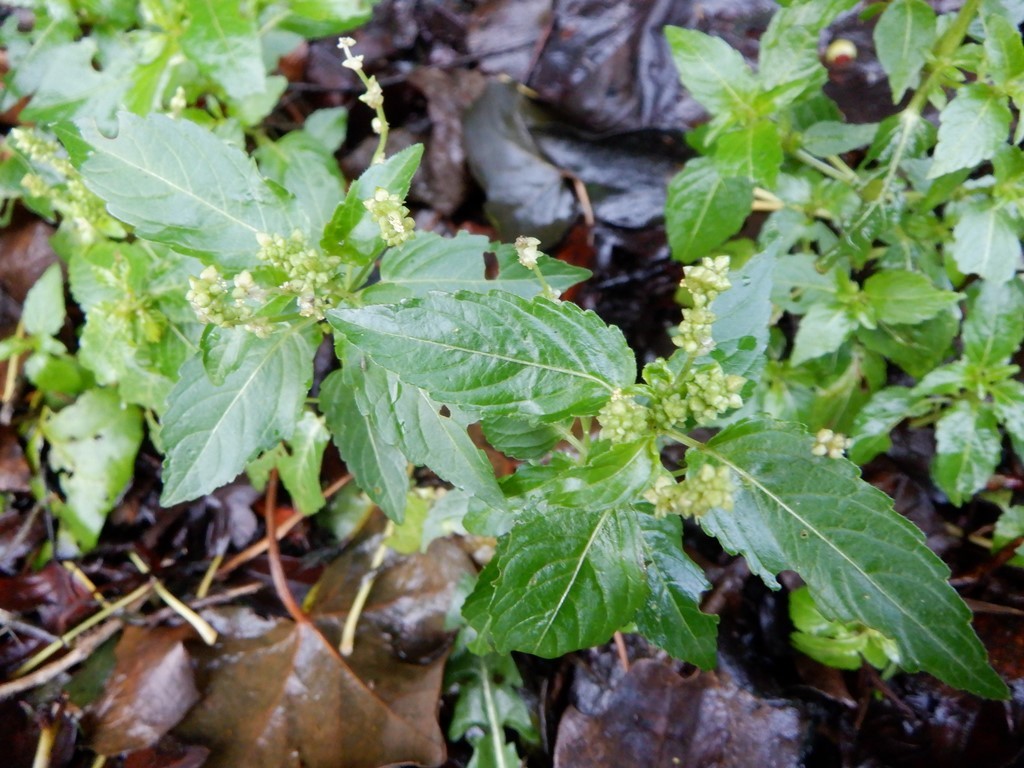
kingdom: Plantae
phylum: Tracheophyta
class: Magnoliopsida
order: Malpighiales
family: Euphorbiaceae
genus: Mercurialis
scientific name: Mercurialis annua
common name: Annual mercury
